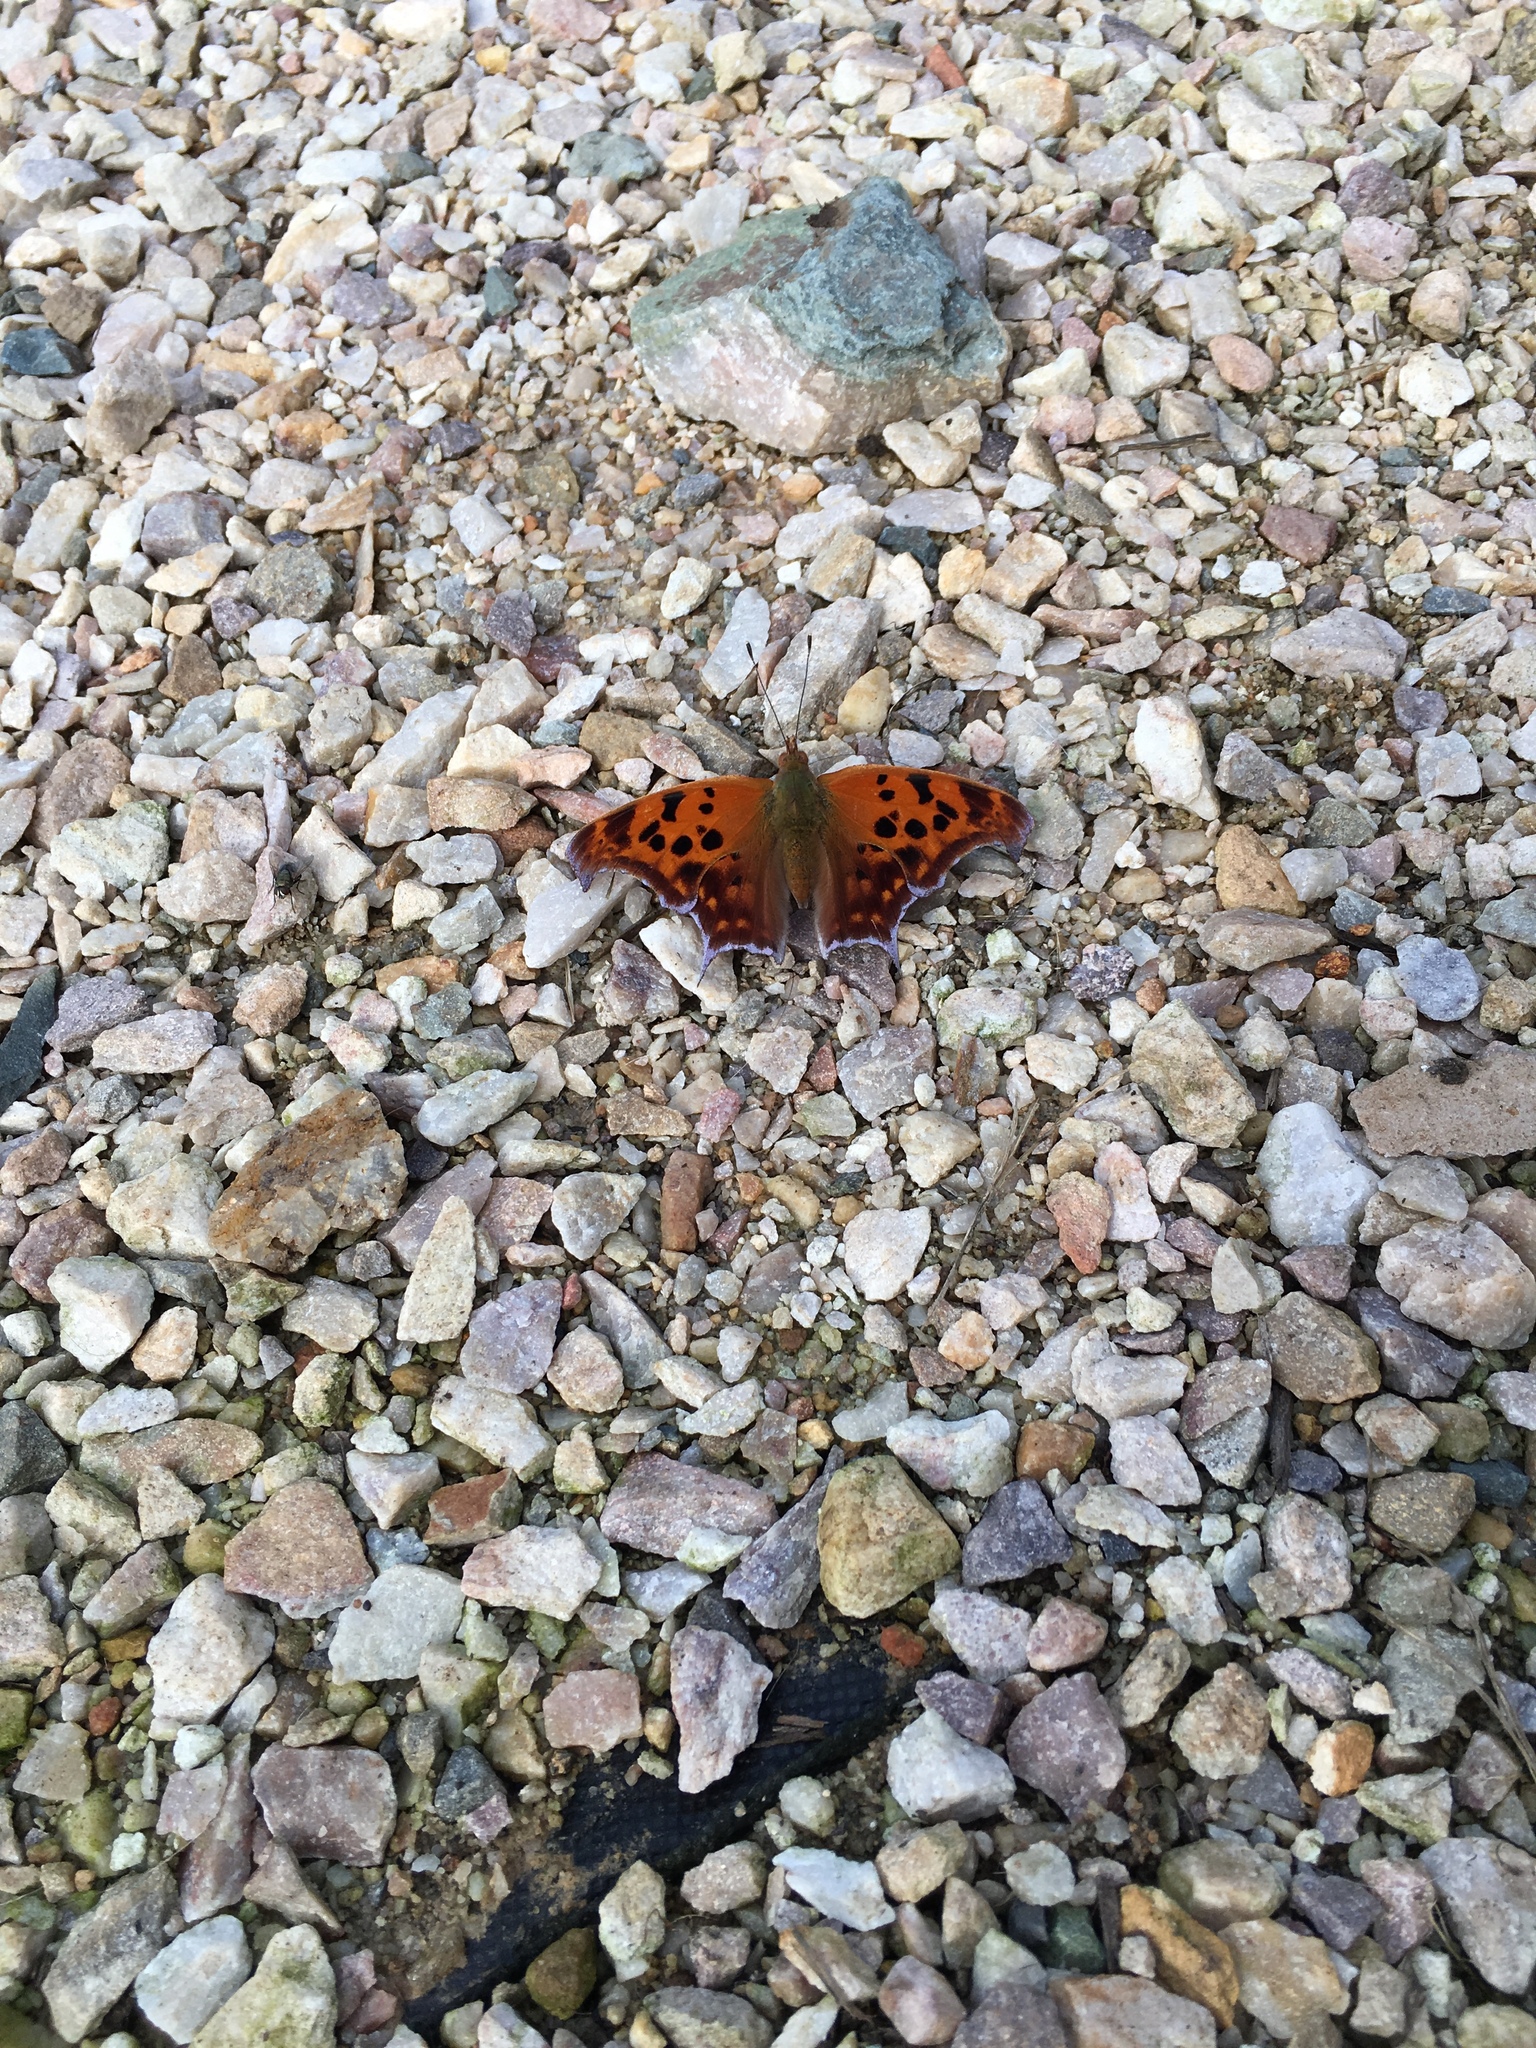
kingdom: Animalia
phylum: Arthropoda
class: Insecta
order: Lepidoptera
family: Nymphalidae
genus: Polygonia
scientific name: Polygonia interrogationis
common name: Question mark
